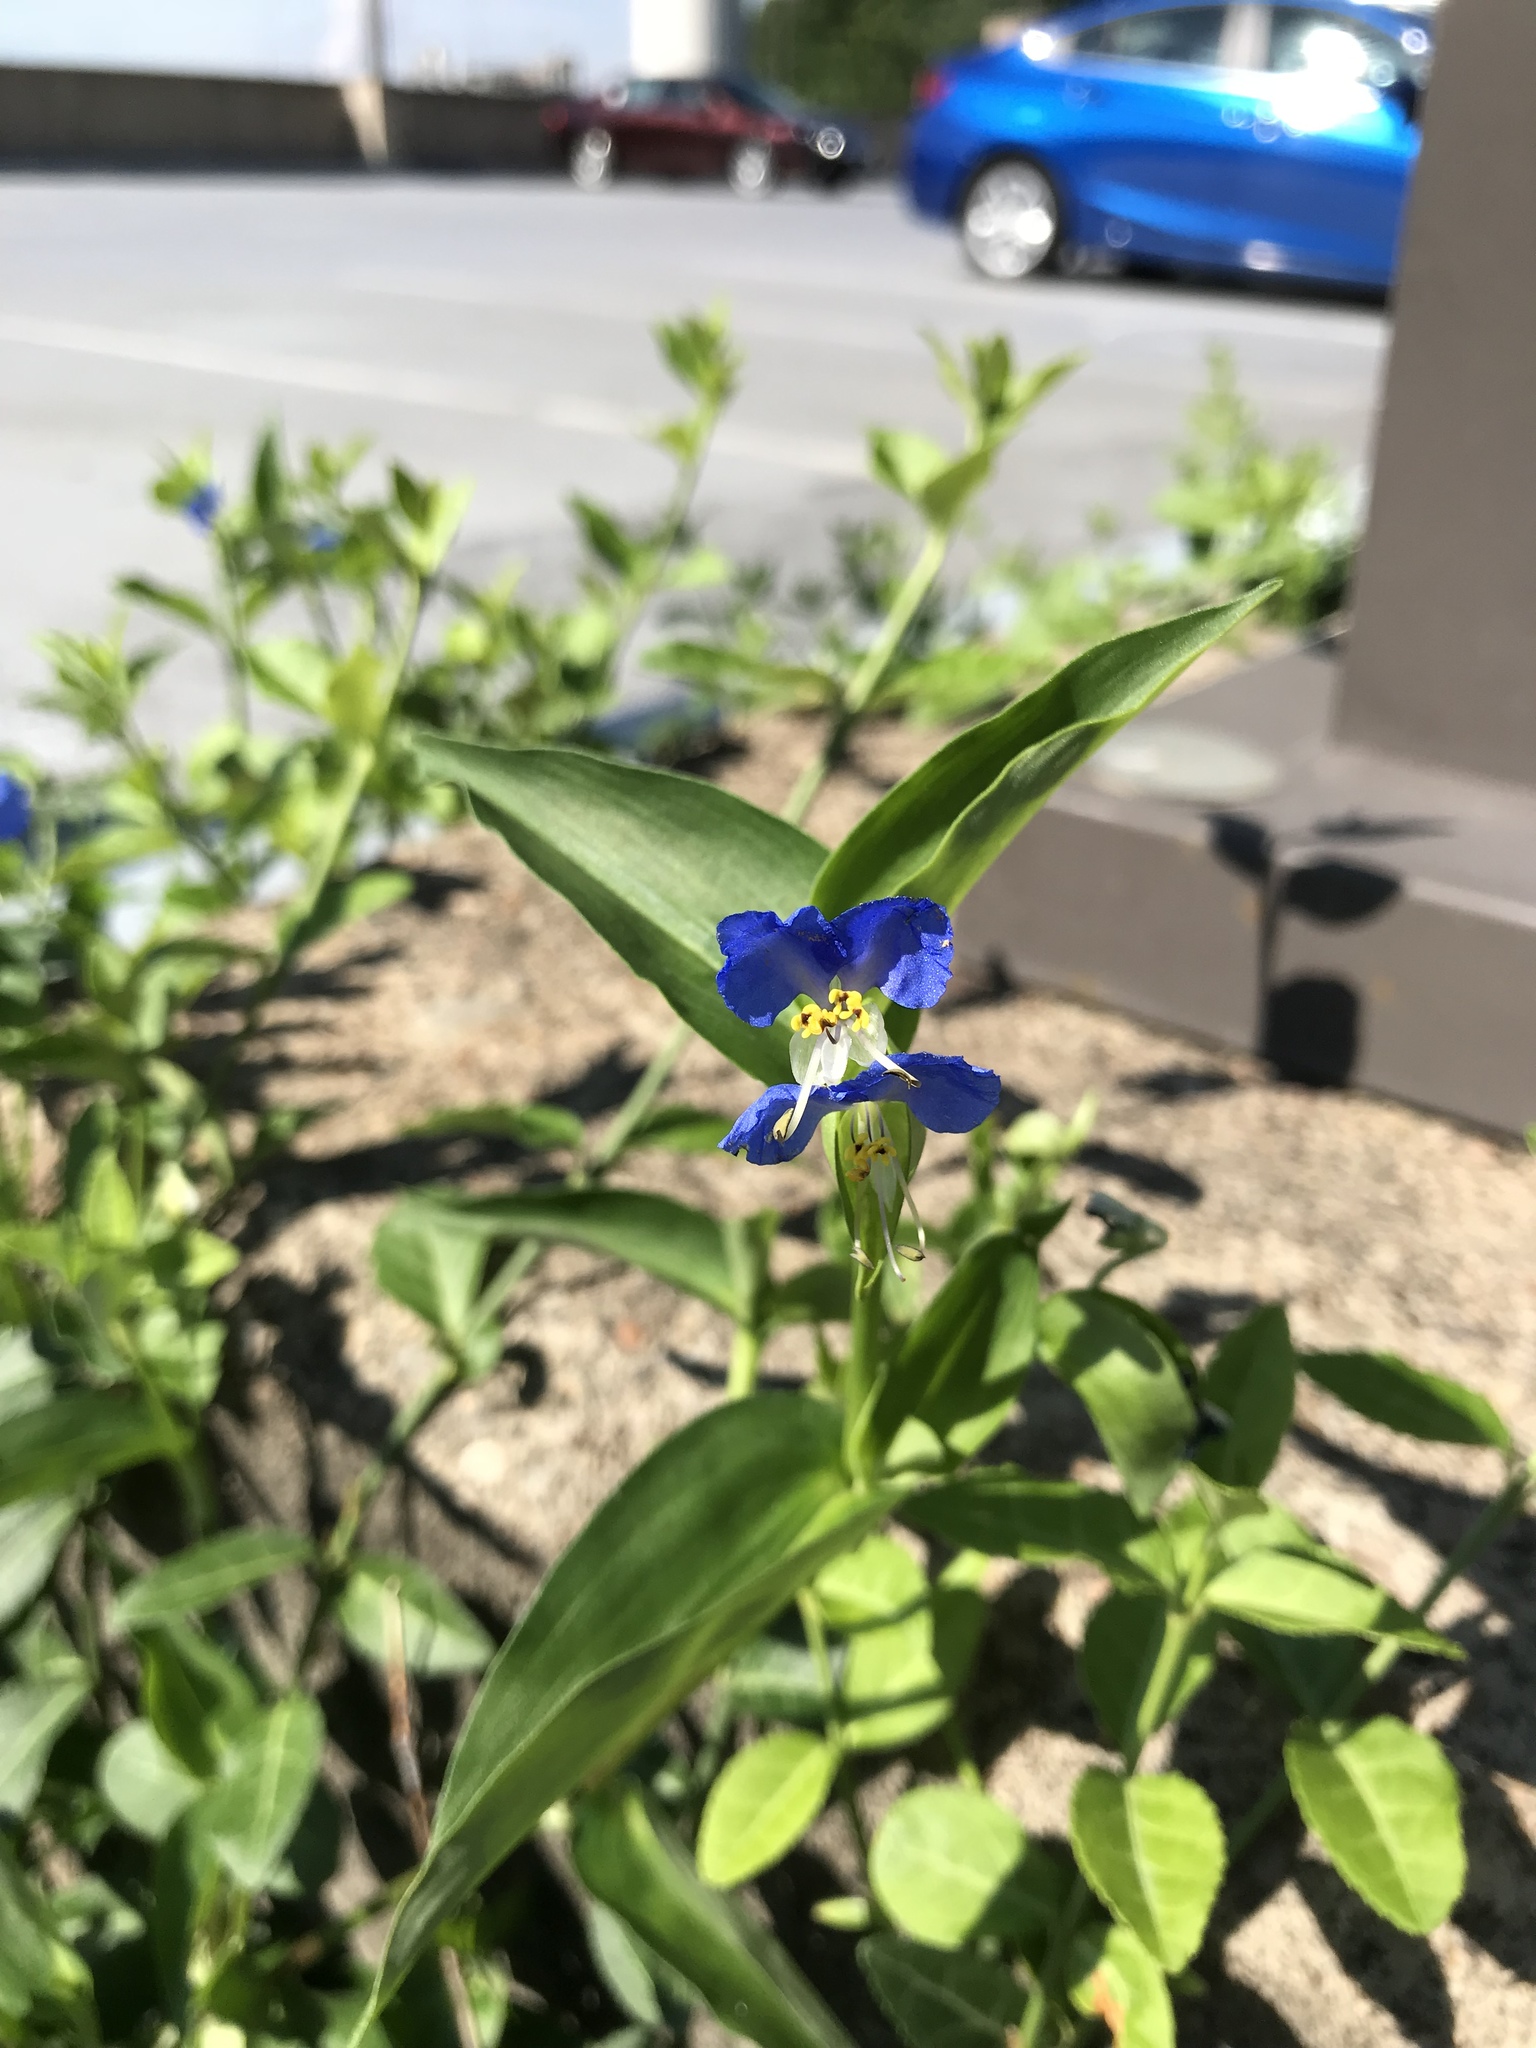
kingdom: Plantae
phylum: Tracheophyta
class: Liliopsida
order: Commelinales
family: Commelinaceae
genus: Commelina
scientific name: Commelina communis
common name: Asiatic dayflower
